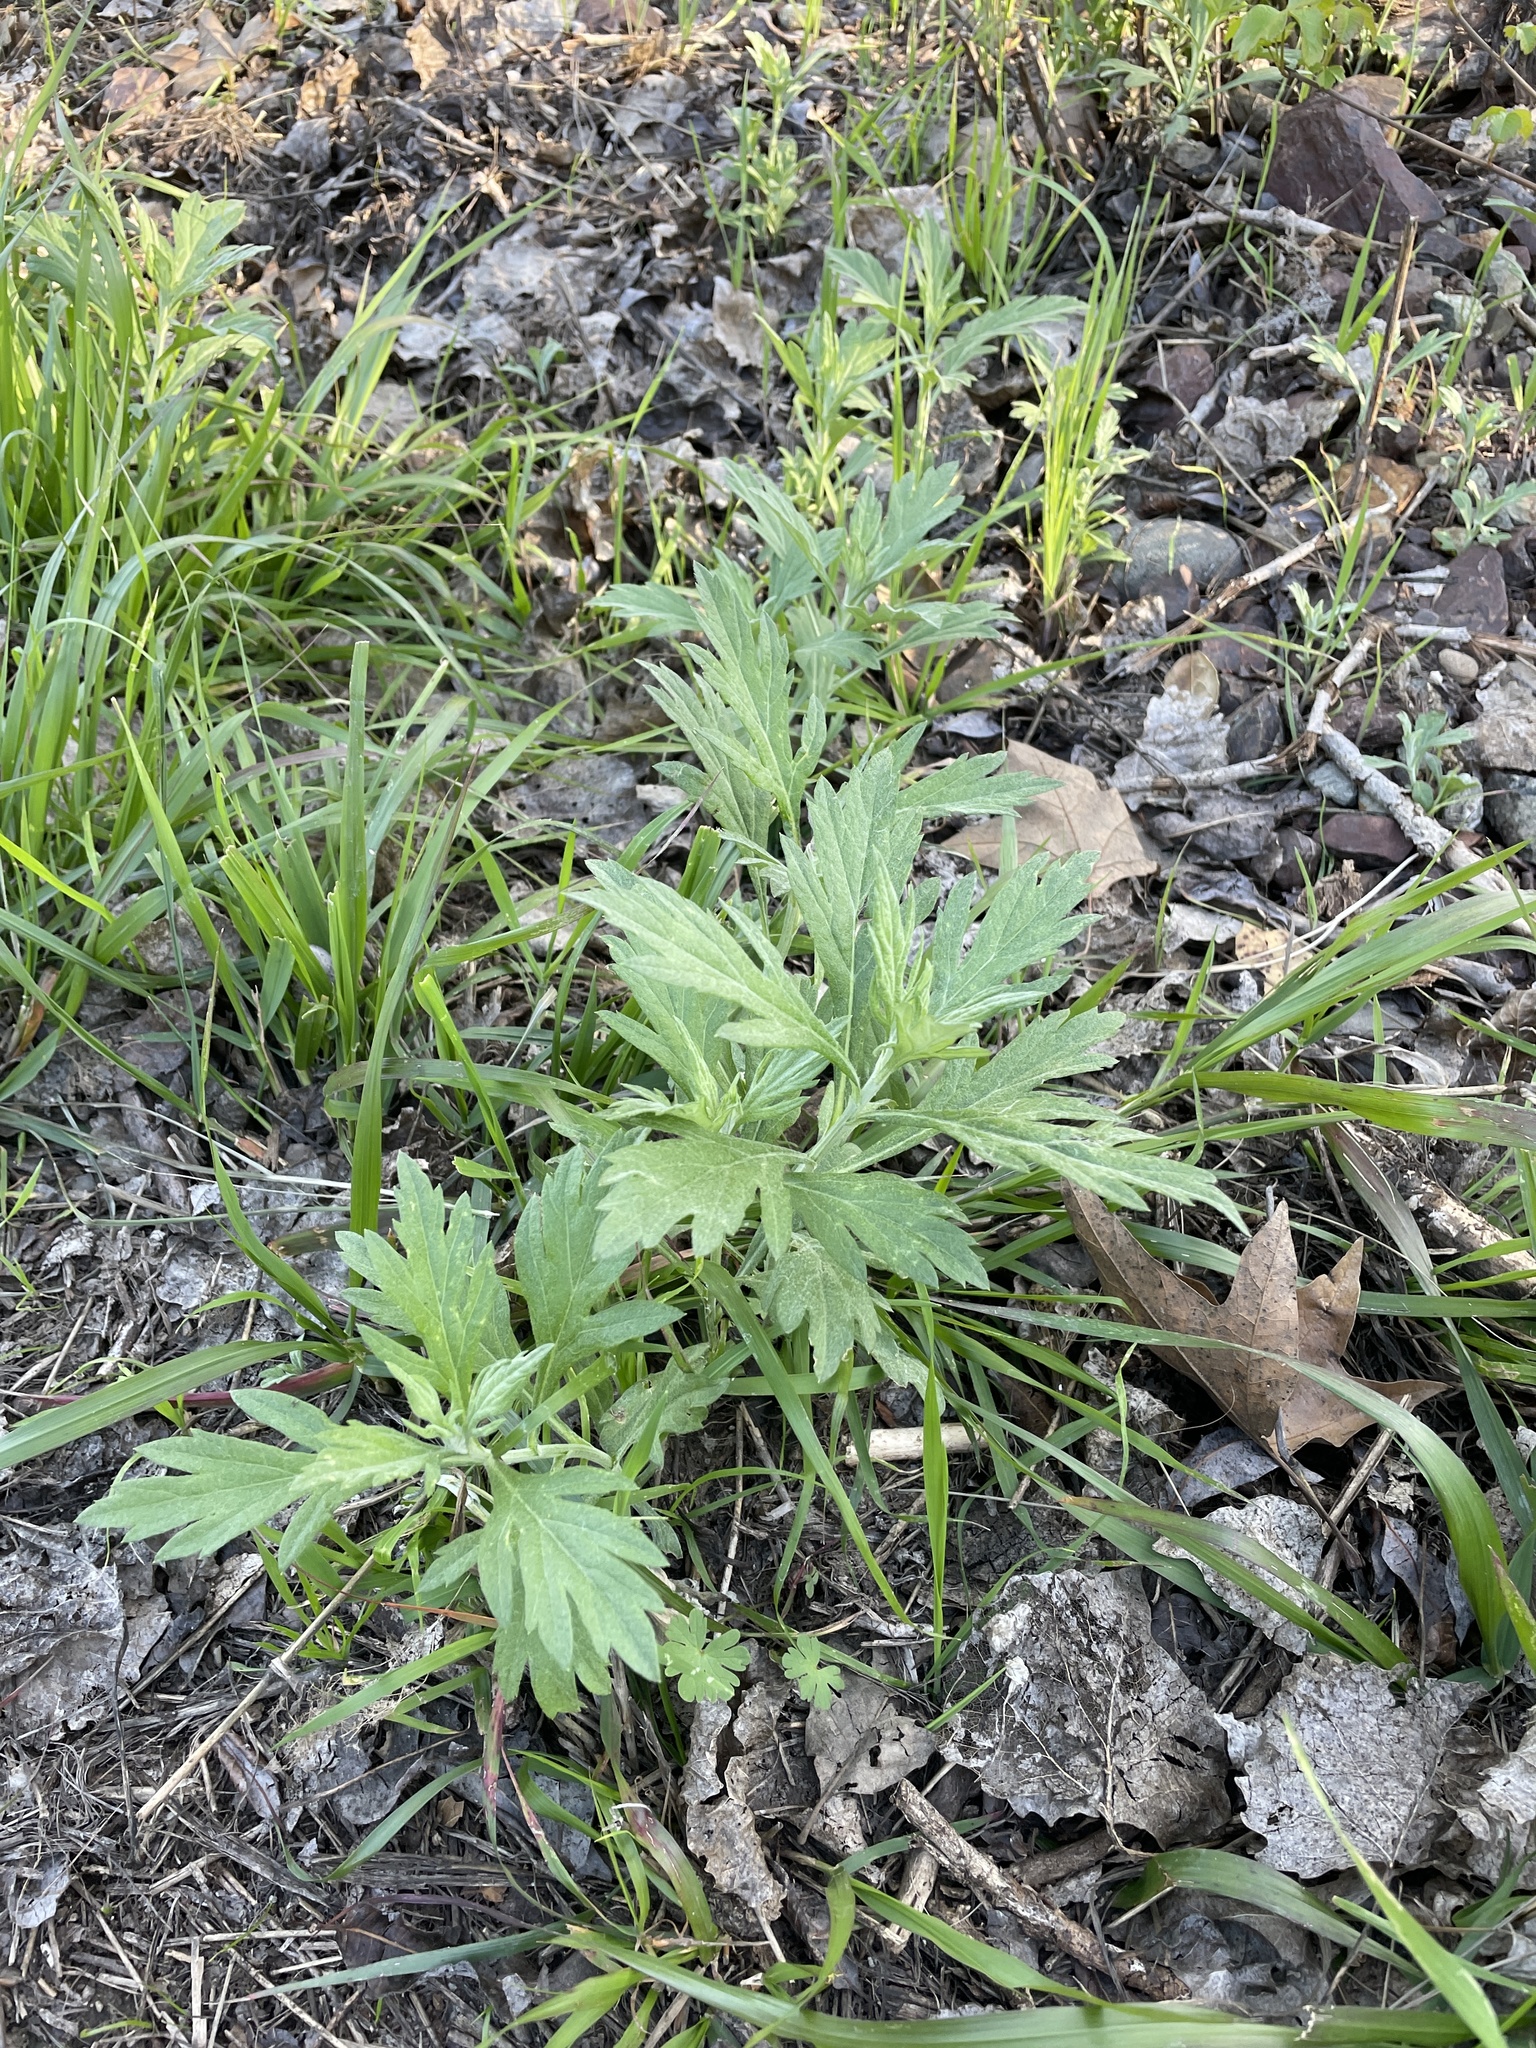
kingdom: Plantae
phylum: Tracheophyta
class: Magnoliopsida
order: Asterales
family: Asteraceae
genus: Artemisia
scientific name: Artemisia douglasiana
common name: Northwest mugwort
